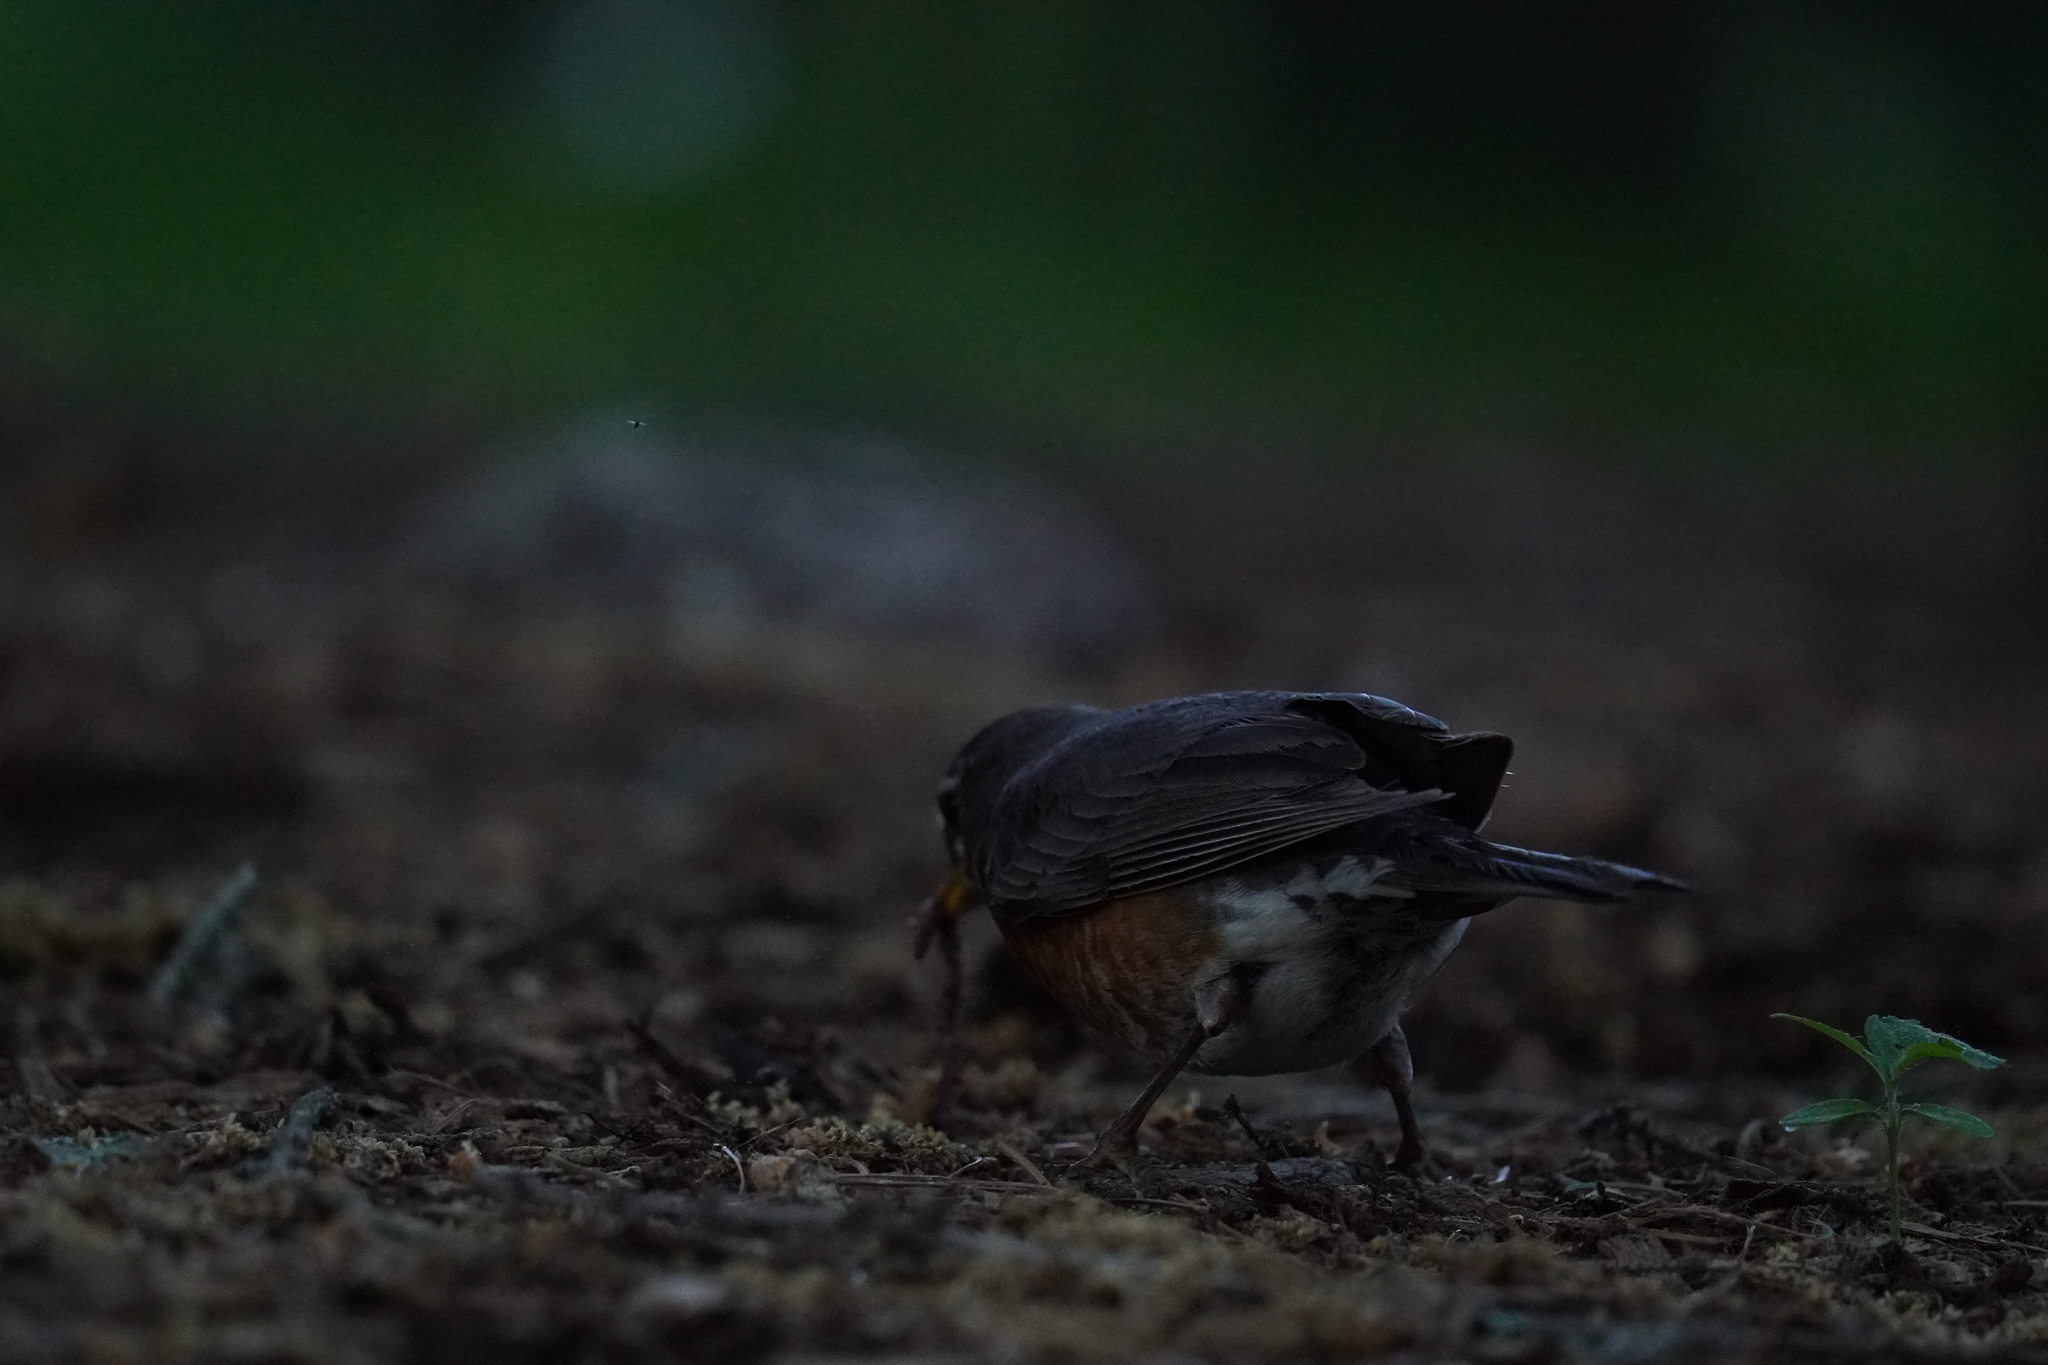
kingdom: Animalia
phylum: Chordata
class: Aves
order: Passeriformes
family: Turdidae
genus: Turdus
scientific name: Turdus migratorius
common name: American robin
